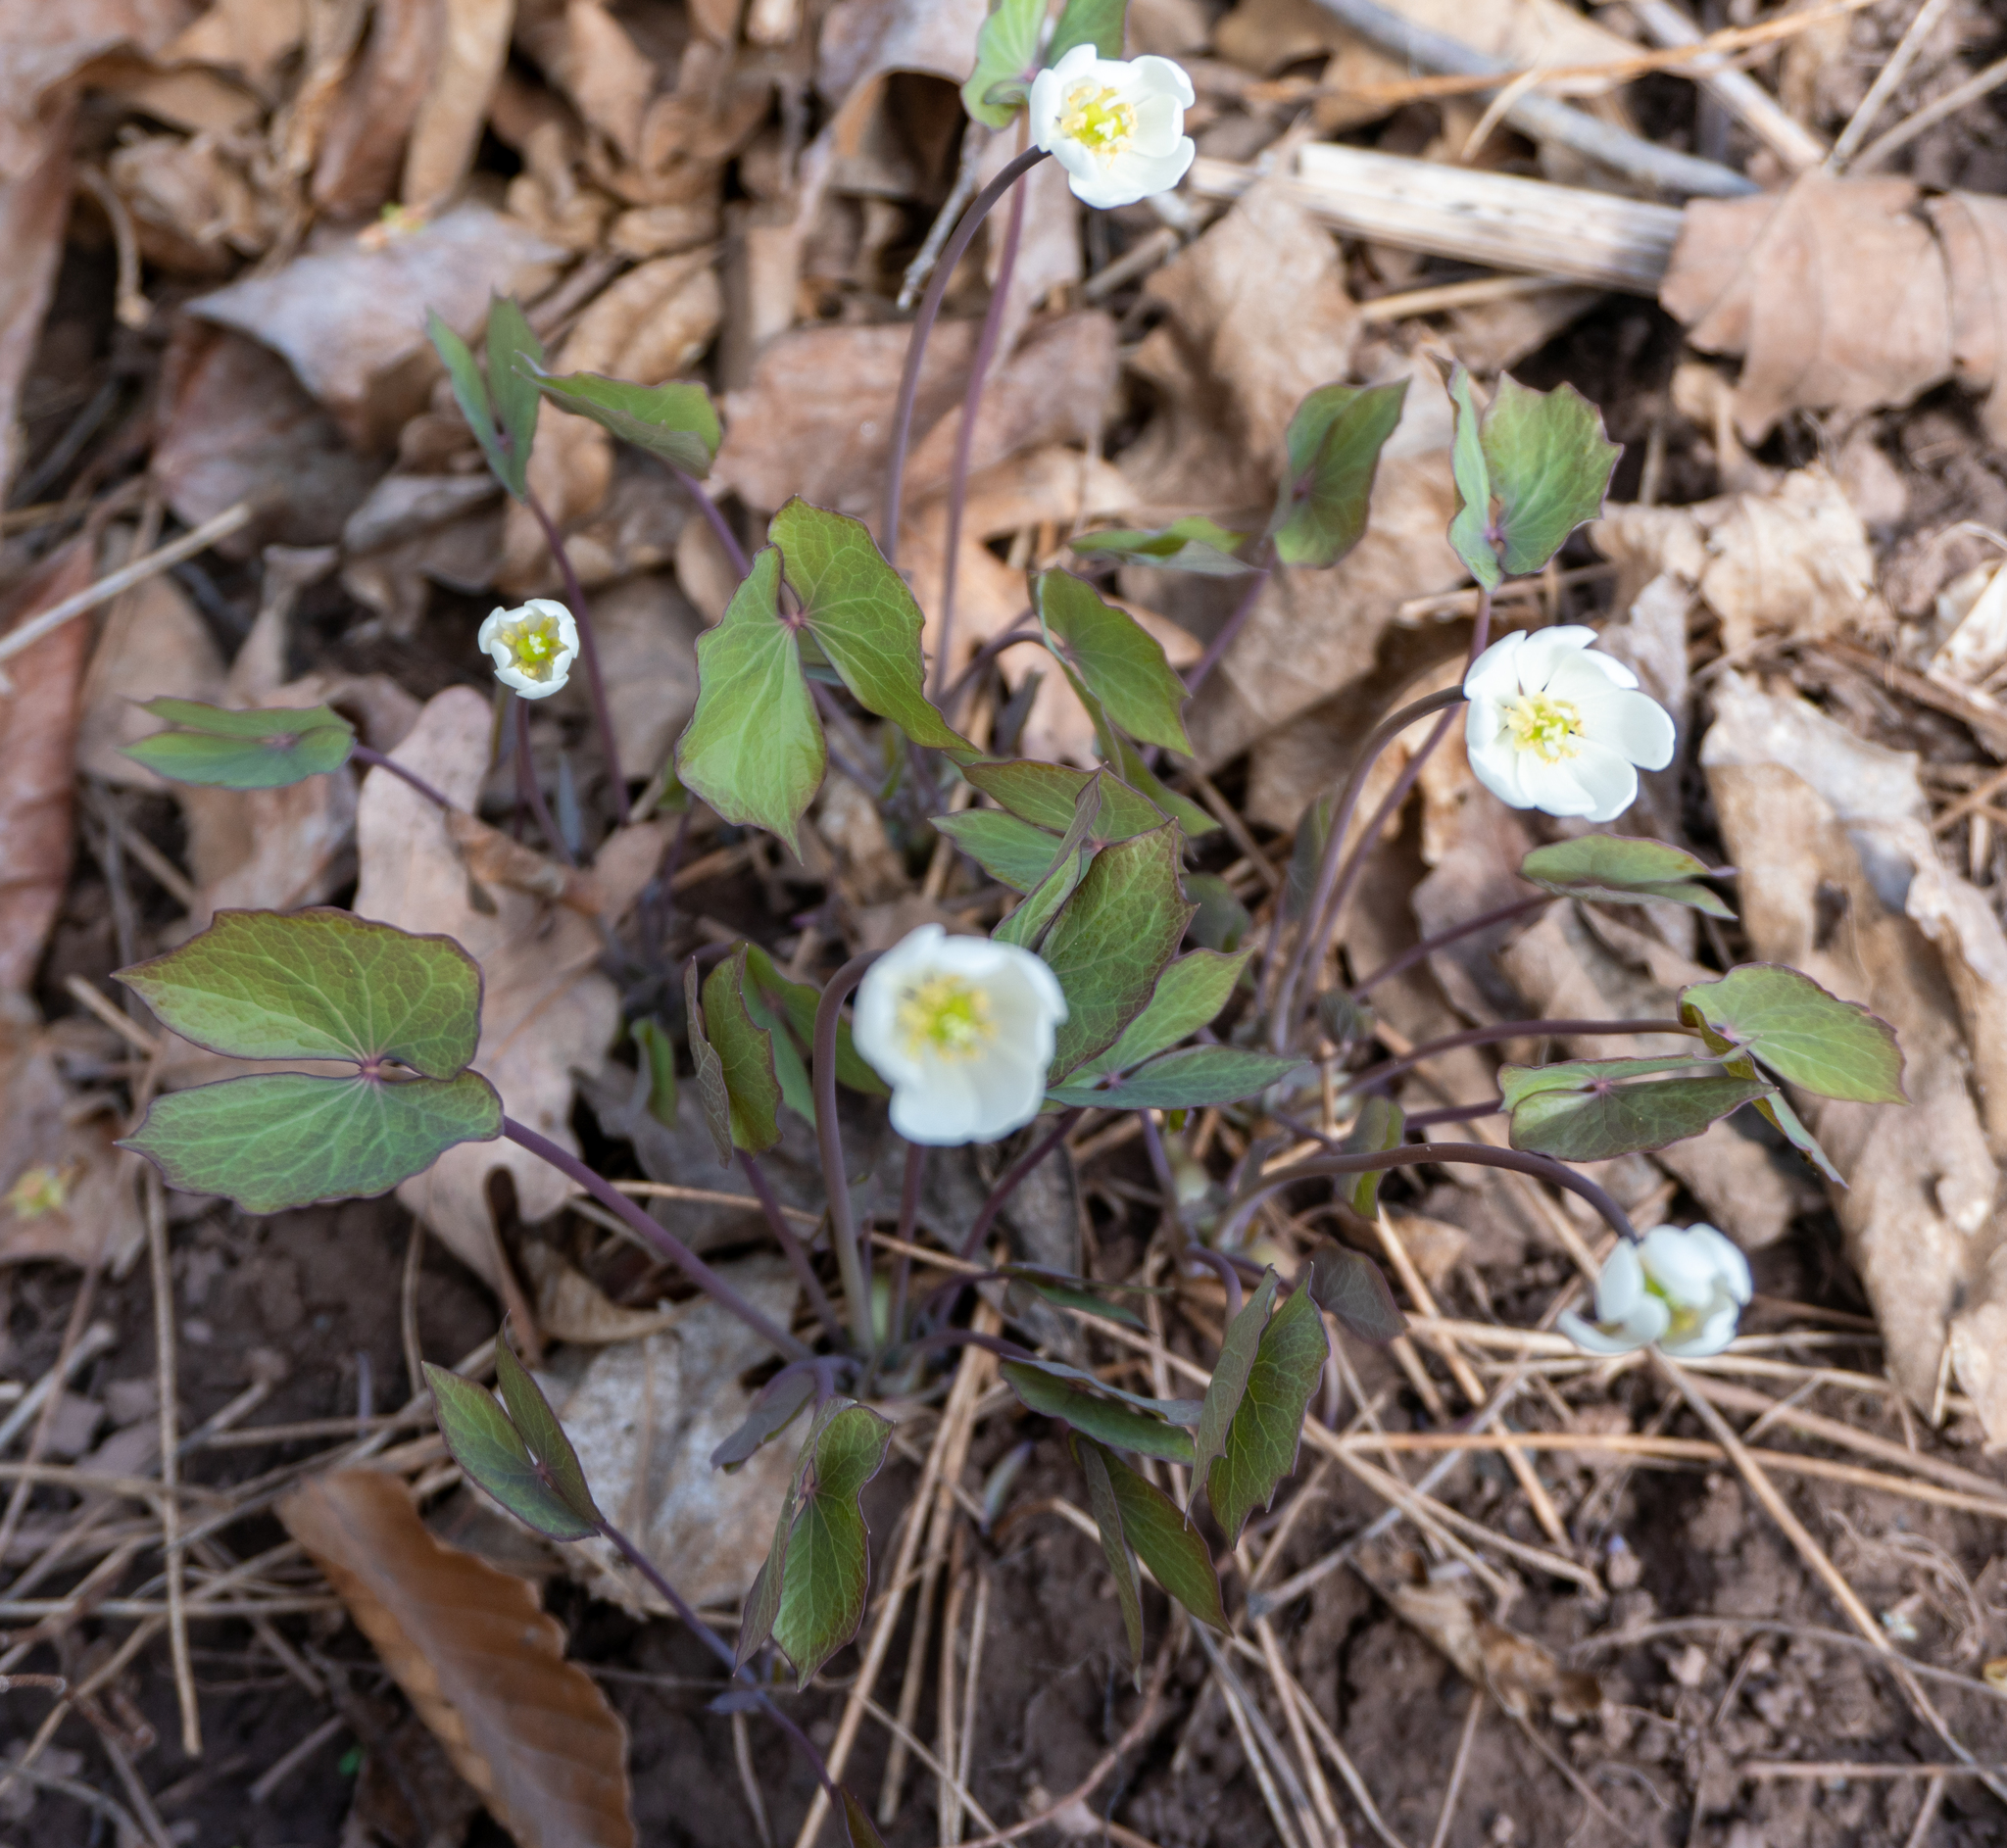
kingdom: Plantae
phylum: Tracheophyta
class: Magnoliopsida
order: Ranunculales
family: Berberidaceae
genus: Jeffersonia
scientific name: Jeffersonia diphylla
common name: Rheumatism-root
